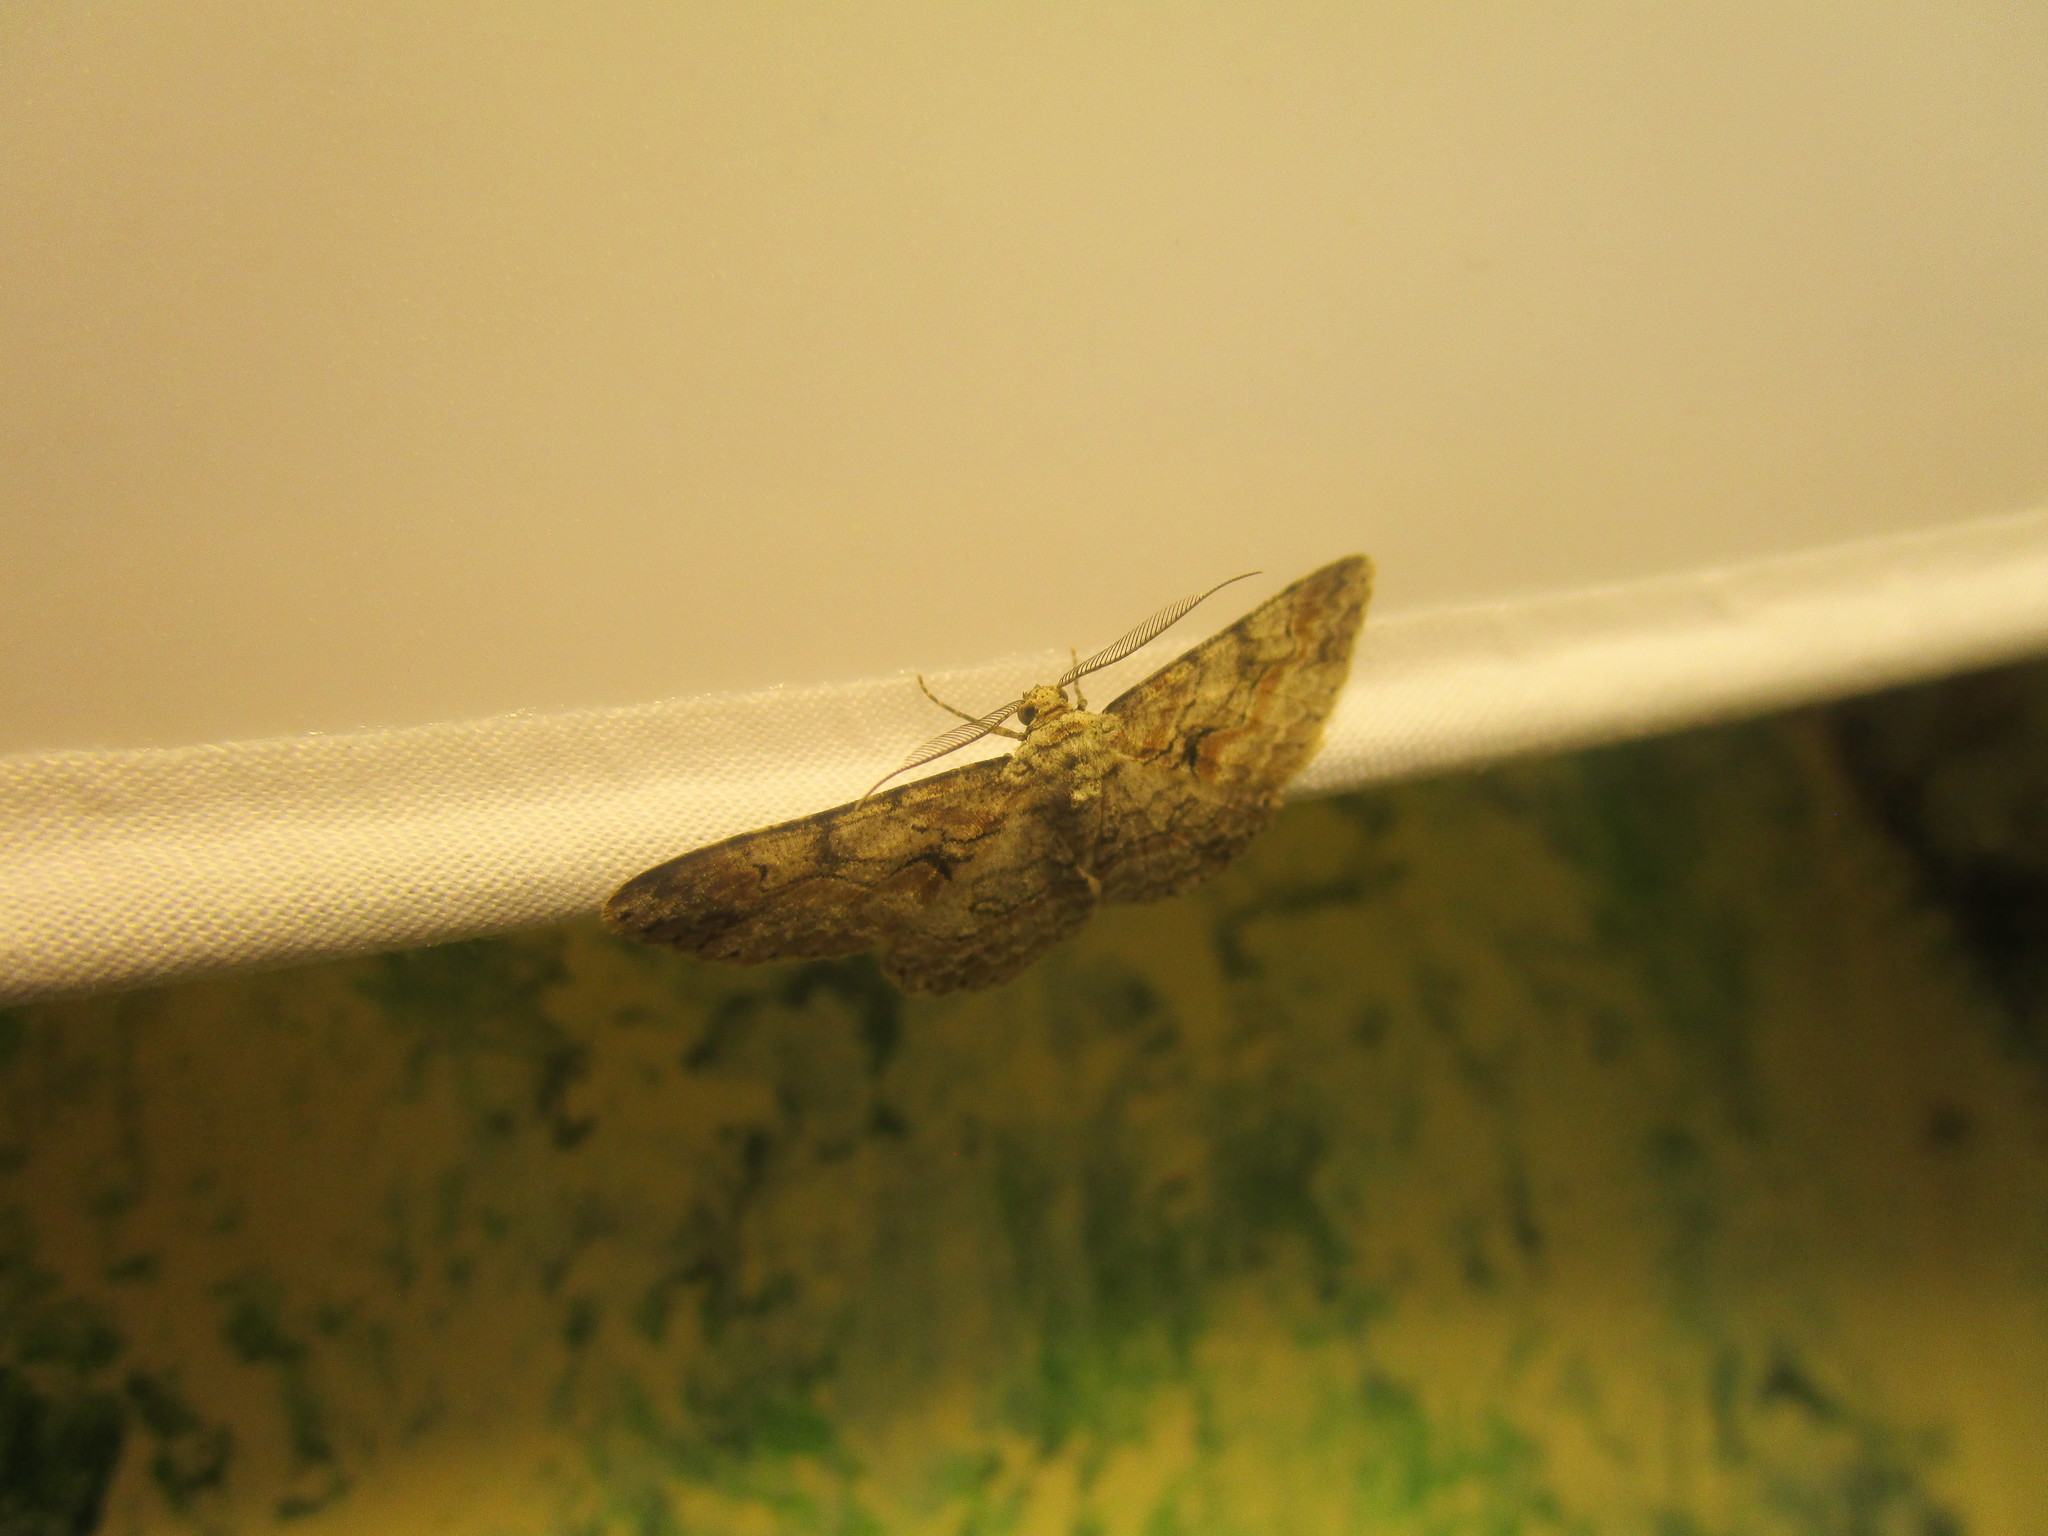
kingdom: Animalia
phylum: Arthropoda
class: Insecta
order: Lepidoptera
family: Geometridae
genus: Iridopsis
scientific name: Iridopsis defectaria
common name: Brown-shaded gray
